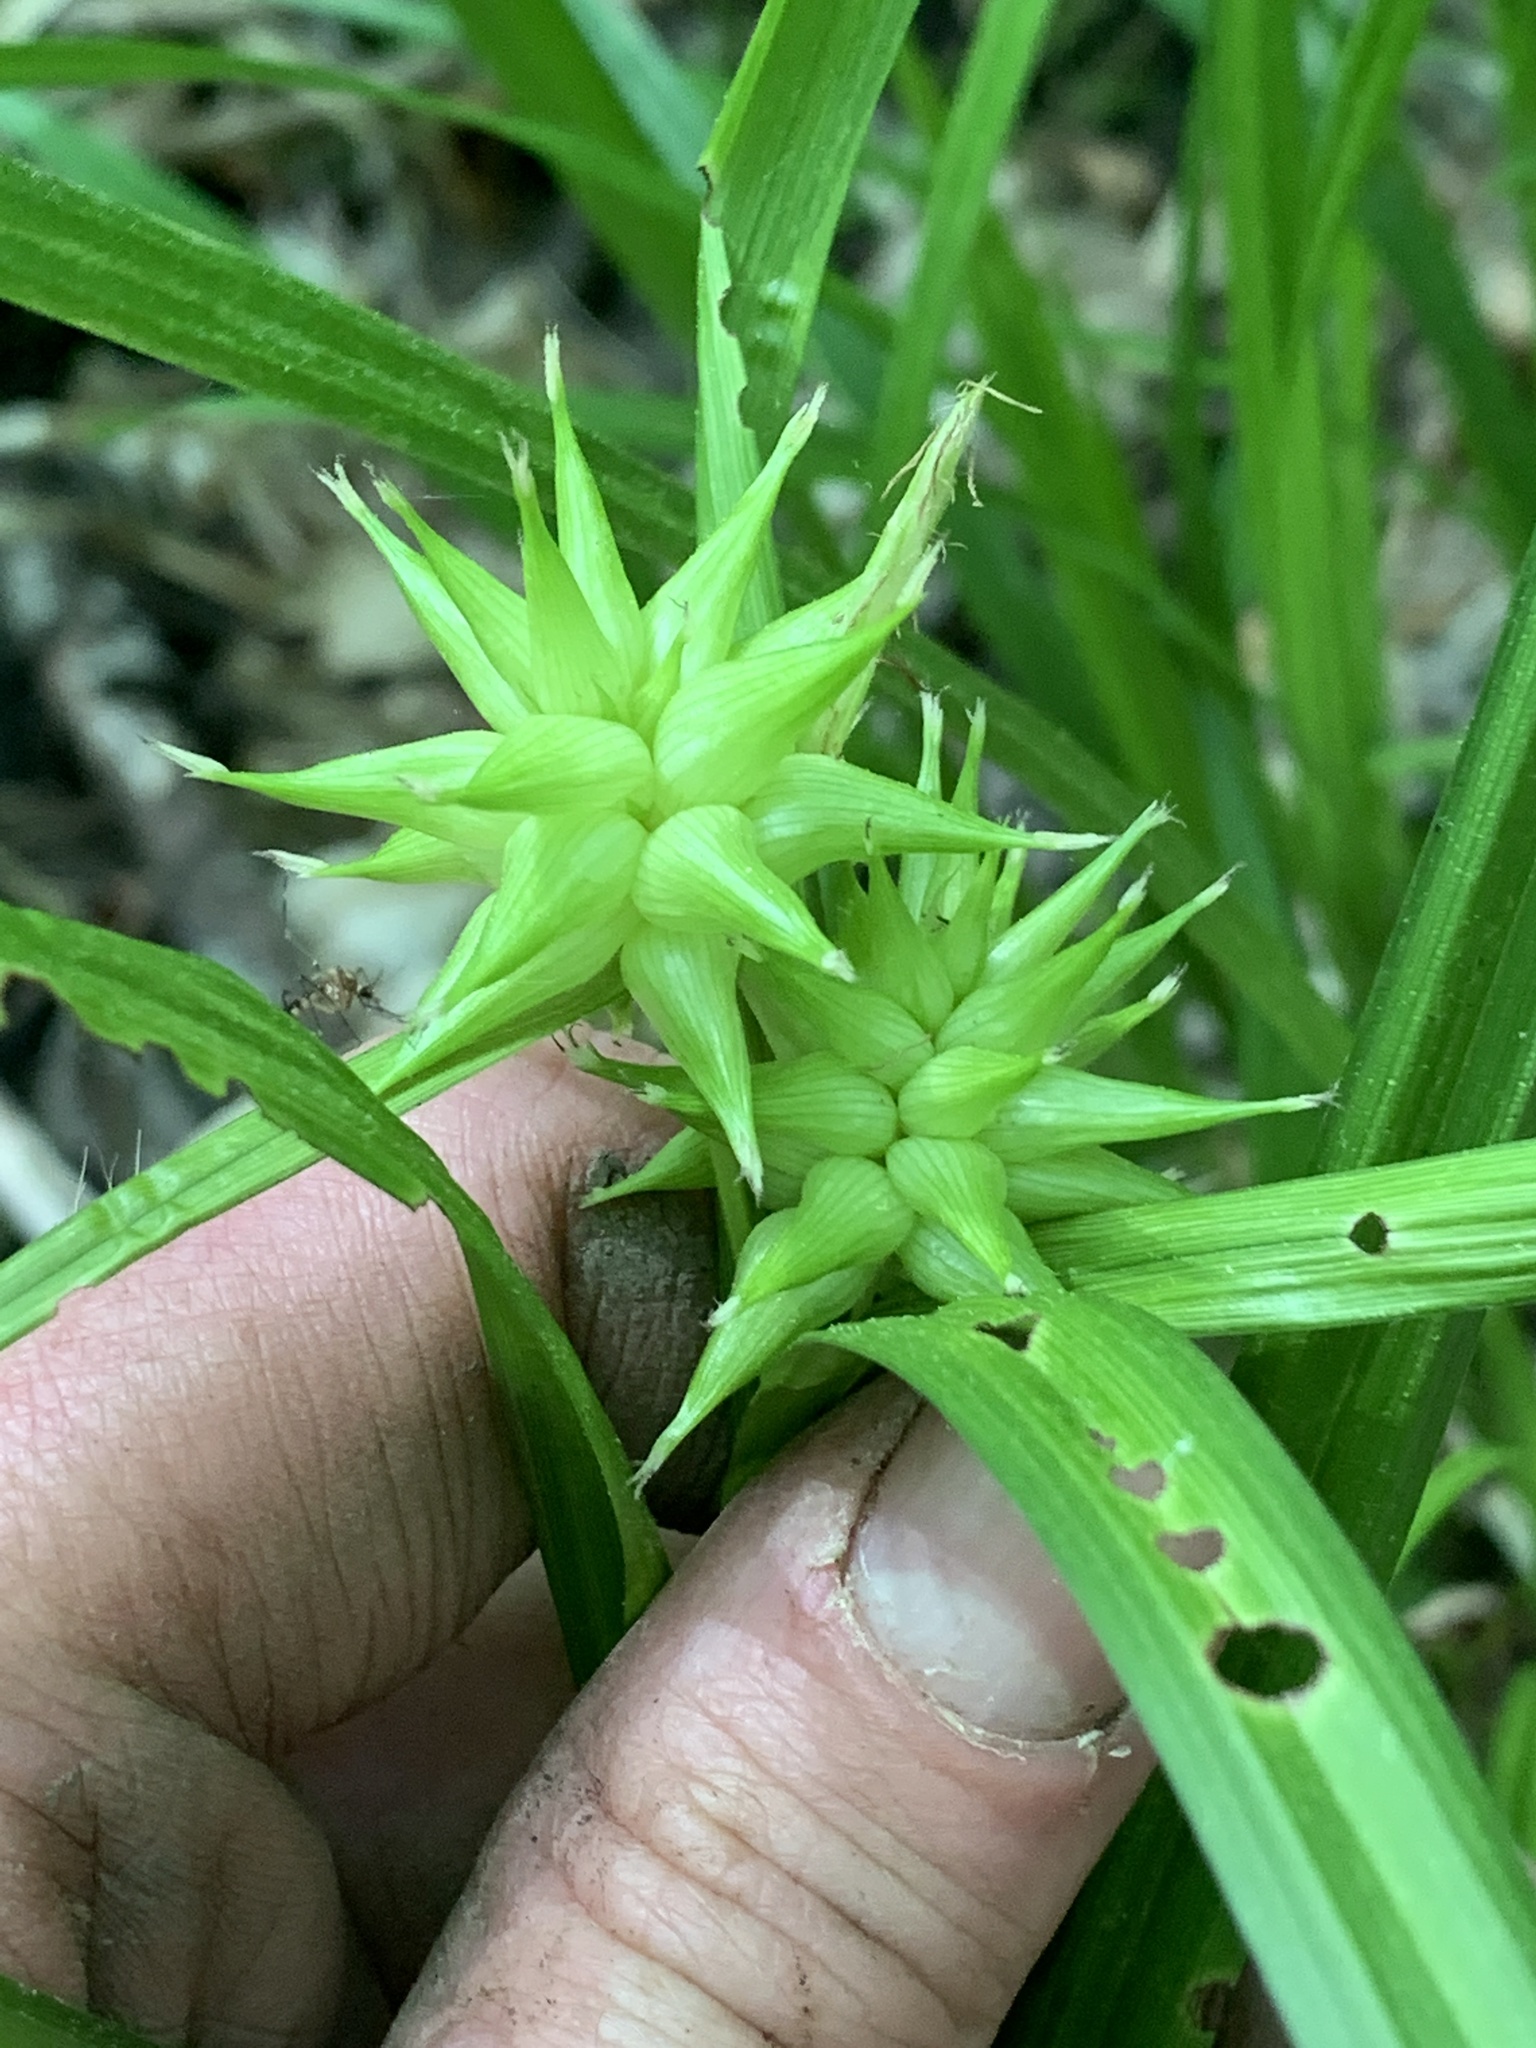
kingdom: Plantae
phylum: Tracheophyta
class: Liliopsida
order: Poales
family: Cyperaceae
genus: Carex
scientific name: Carex grayi
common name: Asa gray's sedge
